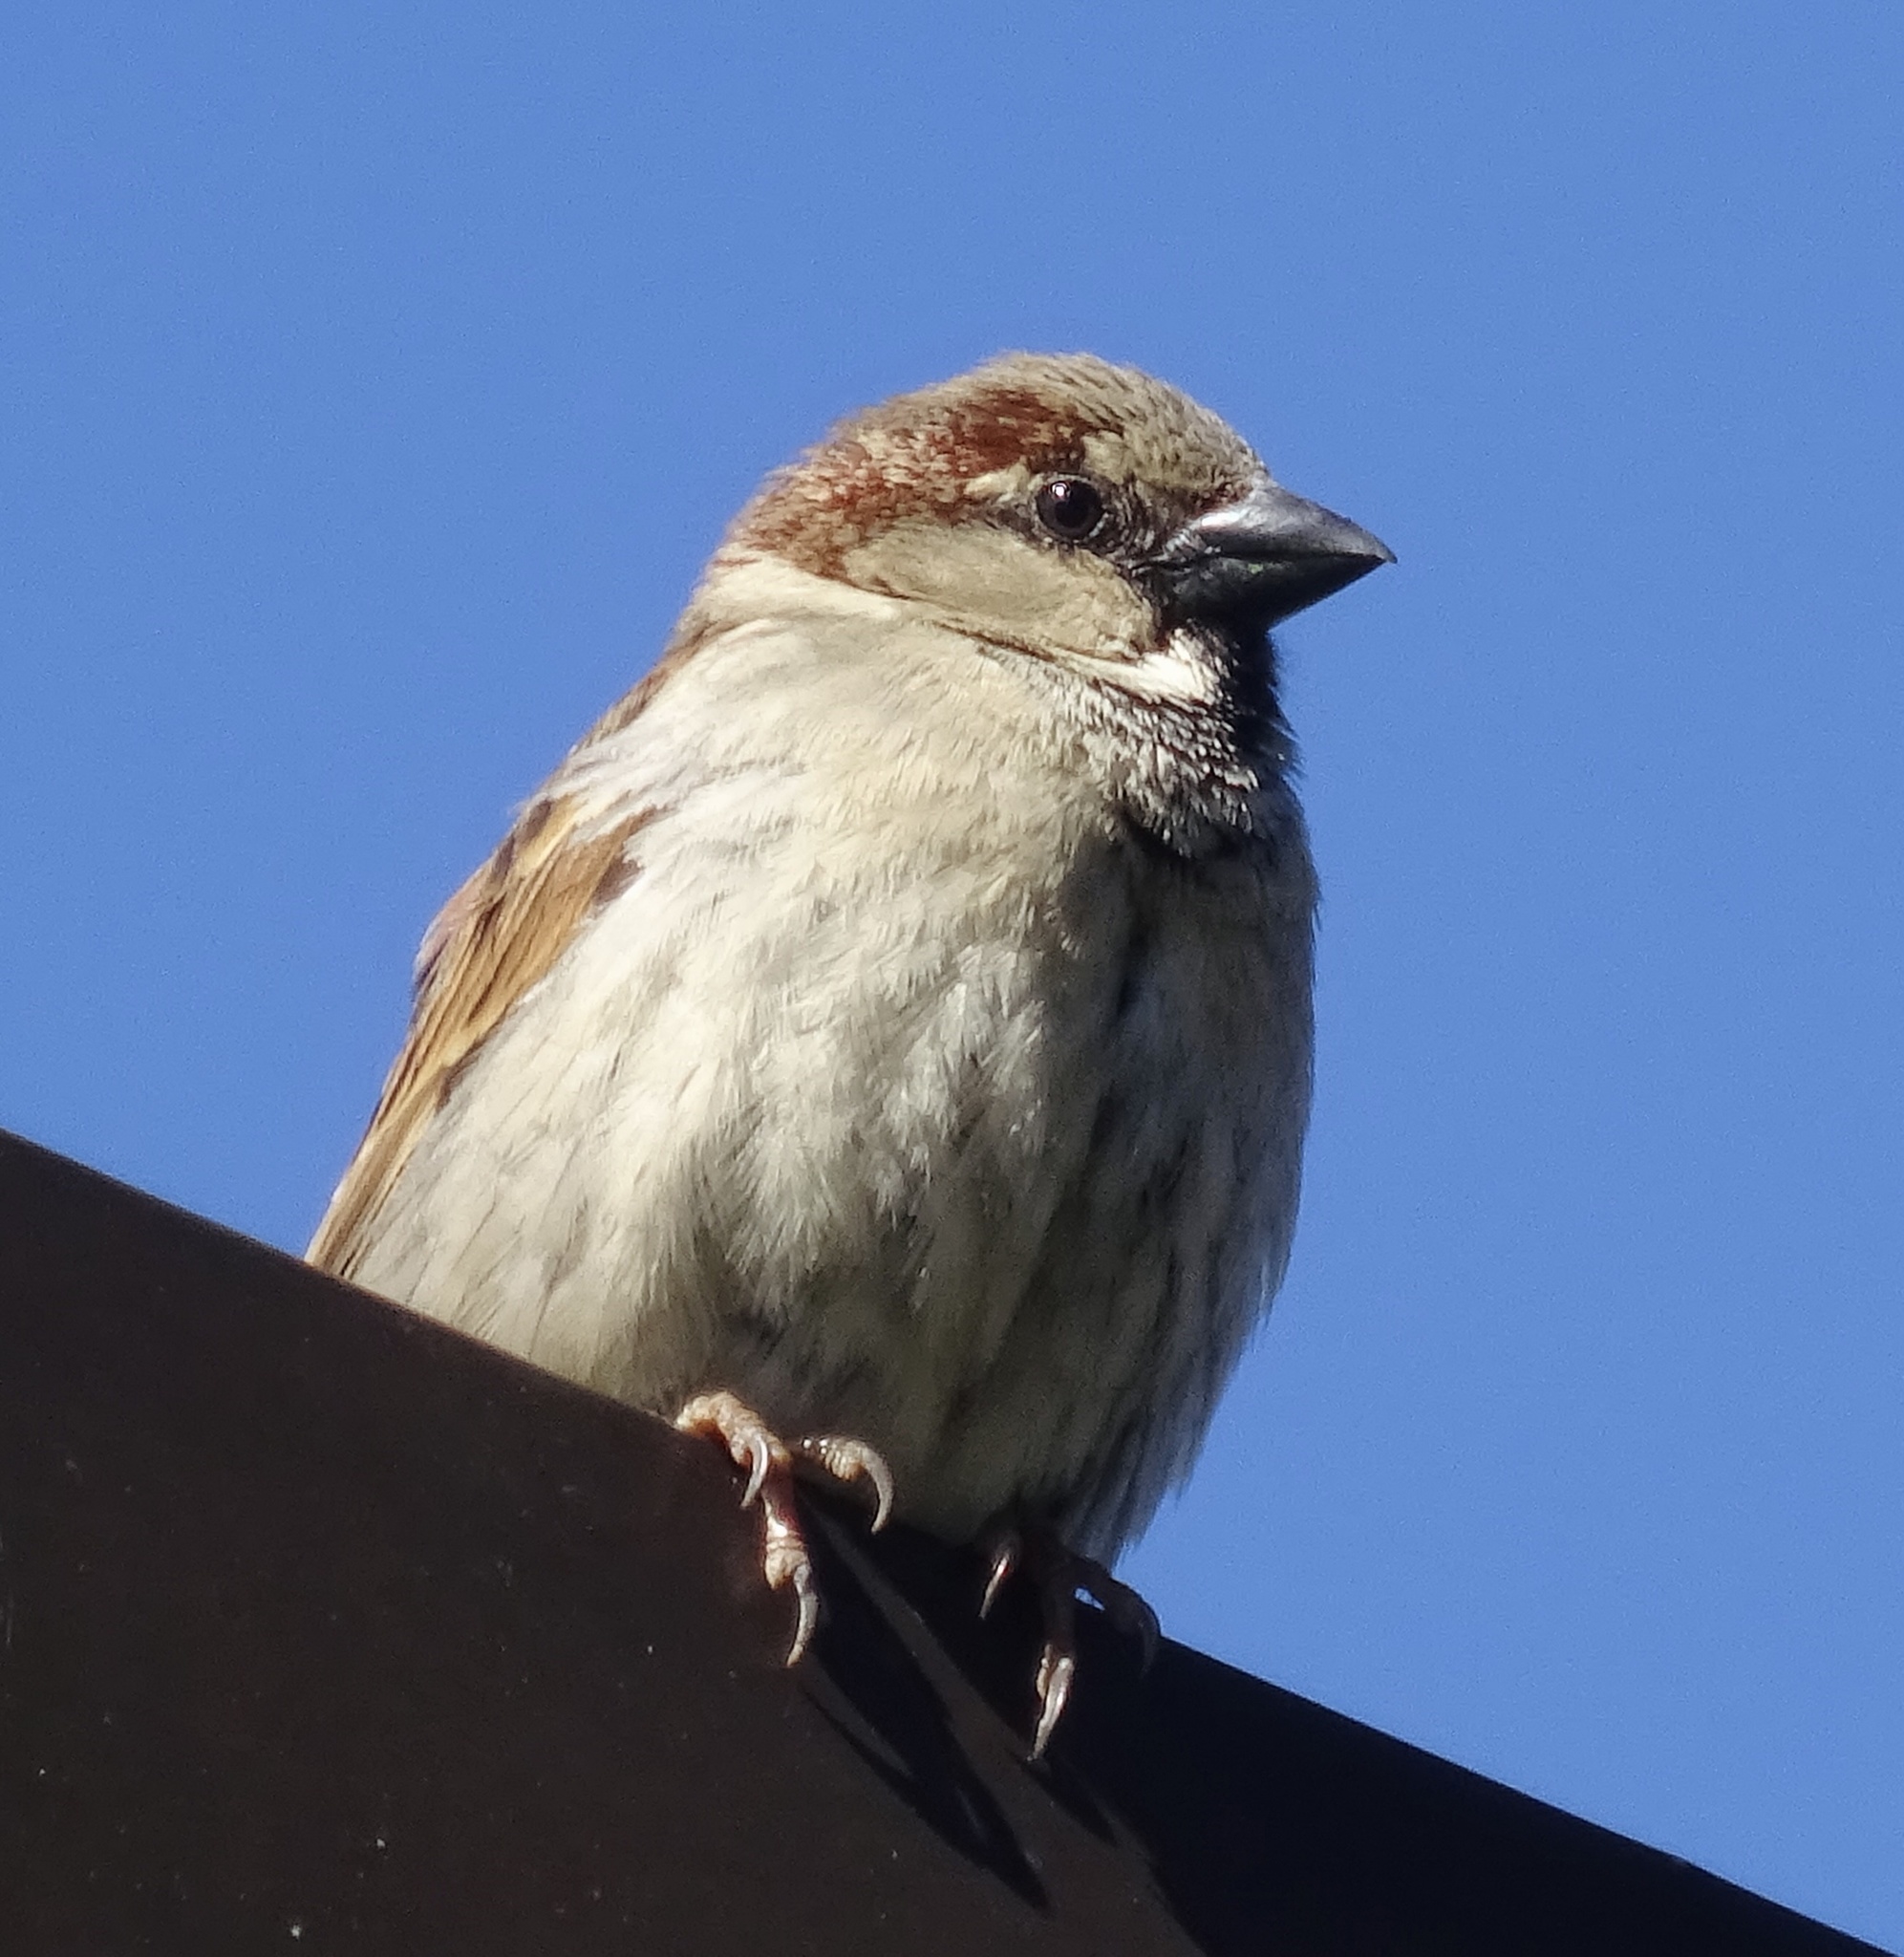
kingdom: Animalia
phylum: Chordata
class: Aves
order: Passeriformes
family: Passeridae
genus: Passer
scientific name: Passer domesticus
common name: House sparrow
